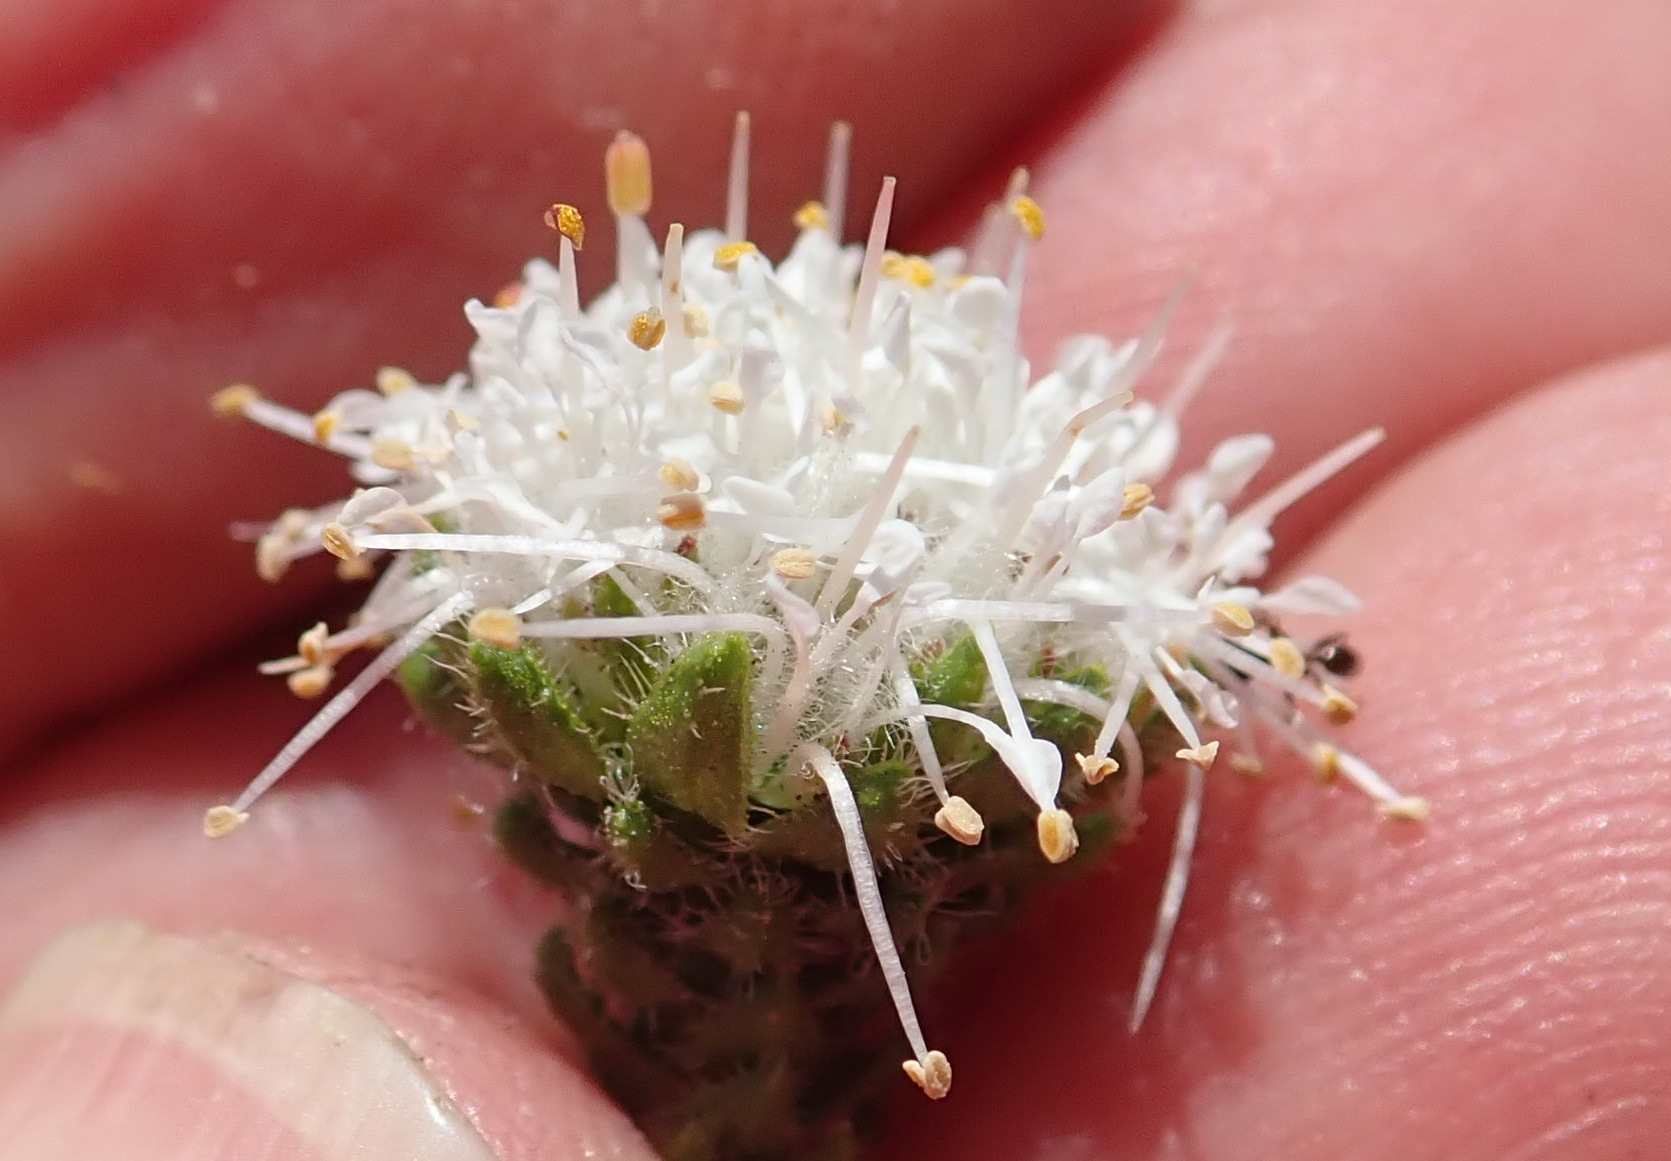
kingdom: Plantae
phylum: Tracheophyta
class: Magnoliopsida
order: Sapindales
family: Rutaceae
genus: Agathosma
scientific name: Agathosma eriantha
